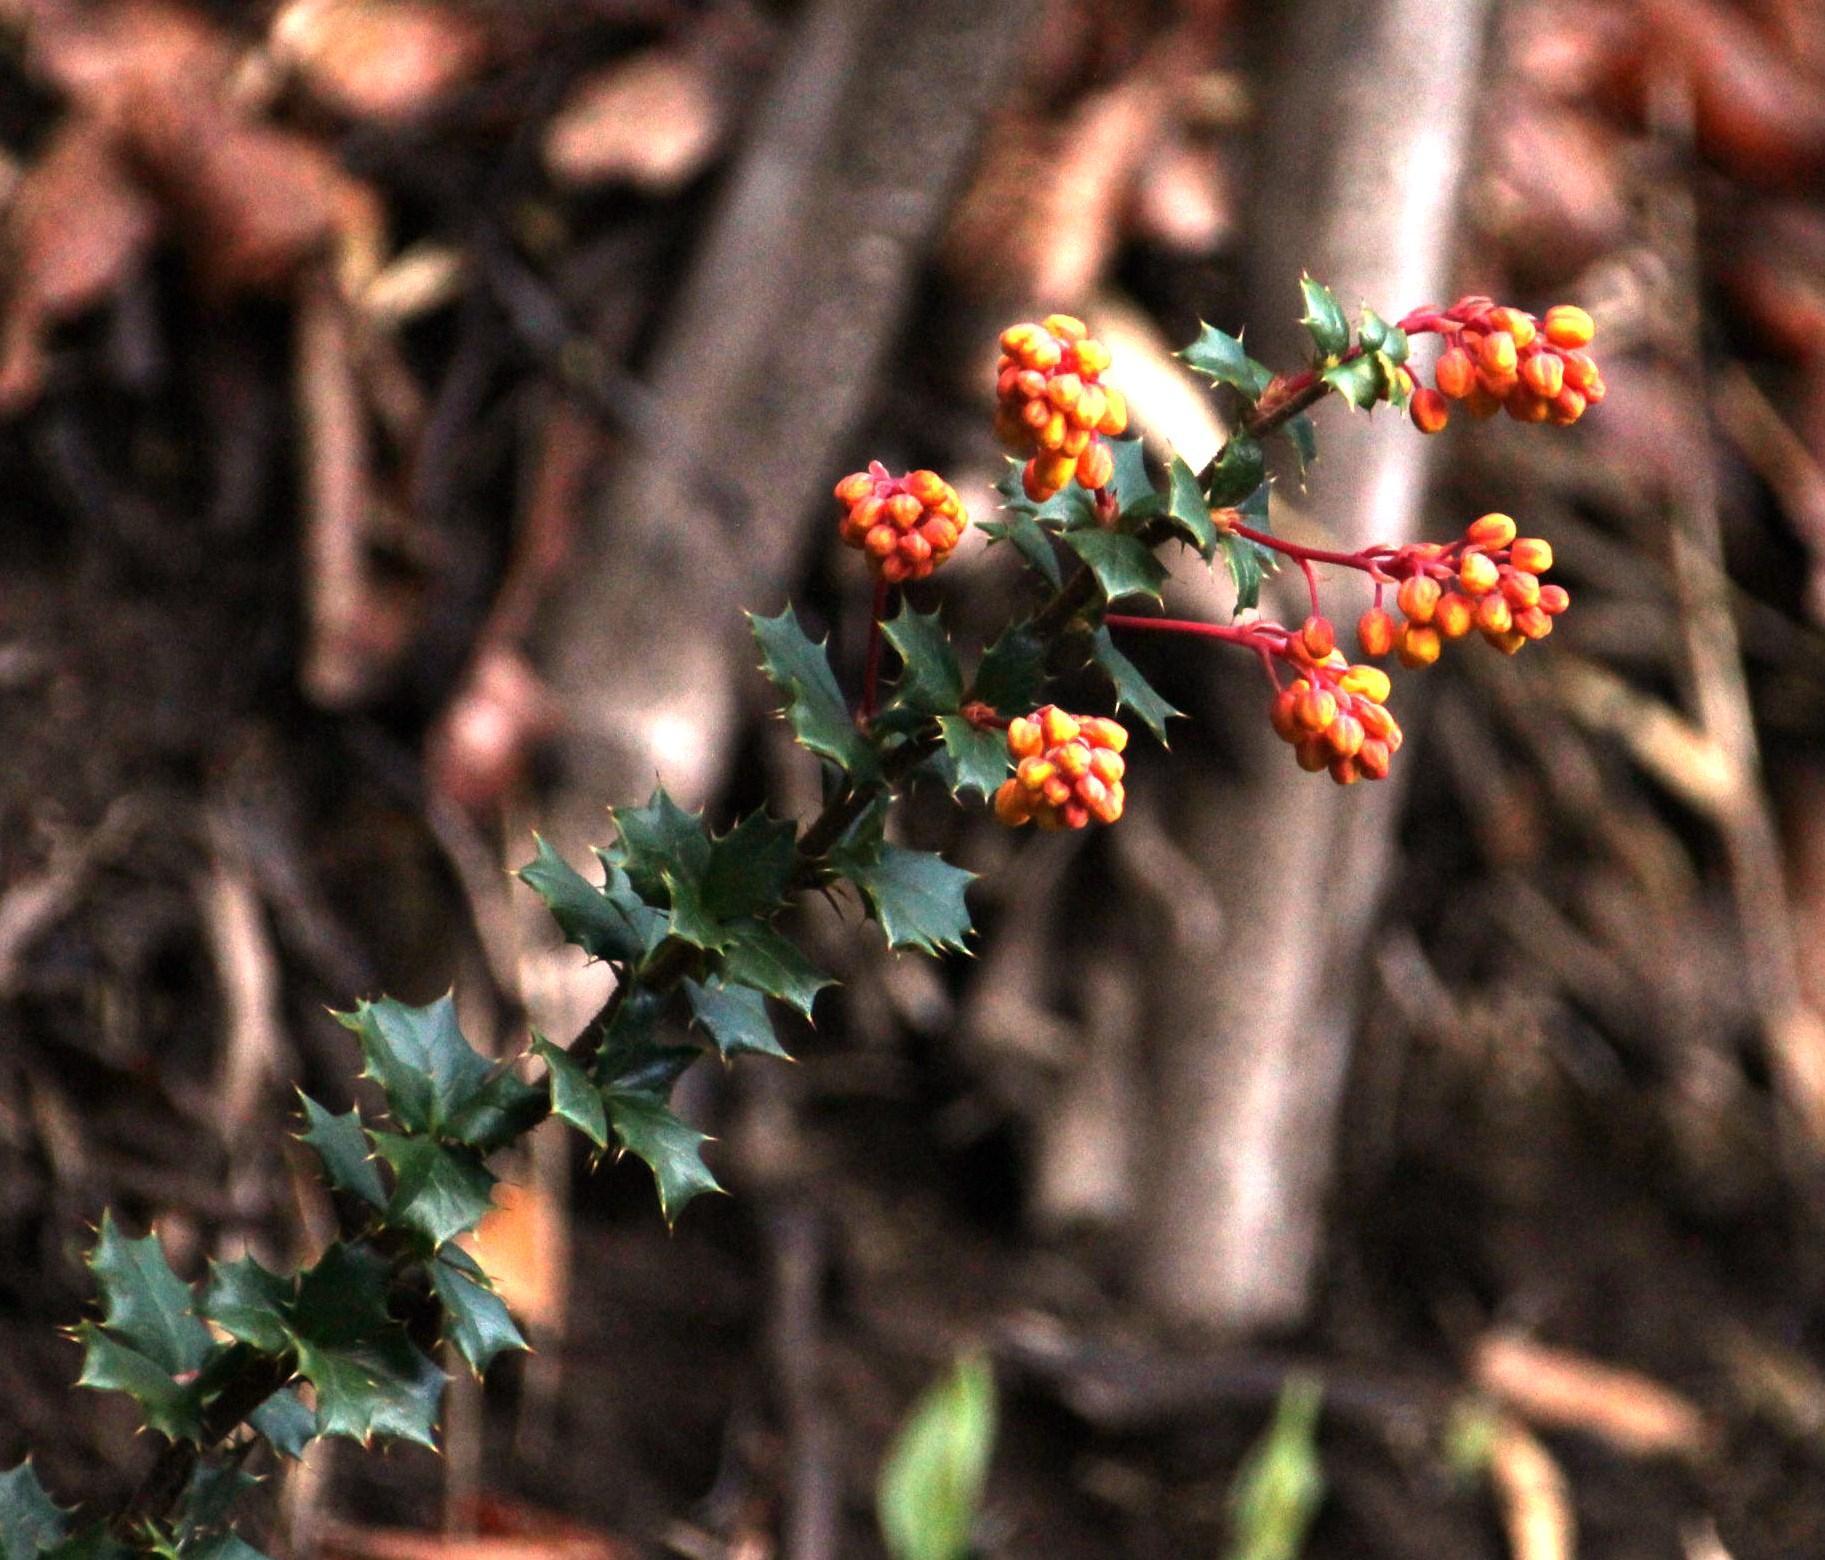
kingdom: Plantae
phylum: Tracheophyta
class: Magnoliopsida
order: Ranunculales
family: Berberidaceae
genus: Berberis
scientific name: Berberis darwinii
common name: Darwin's barberry
